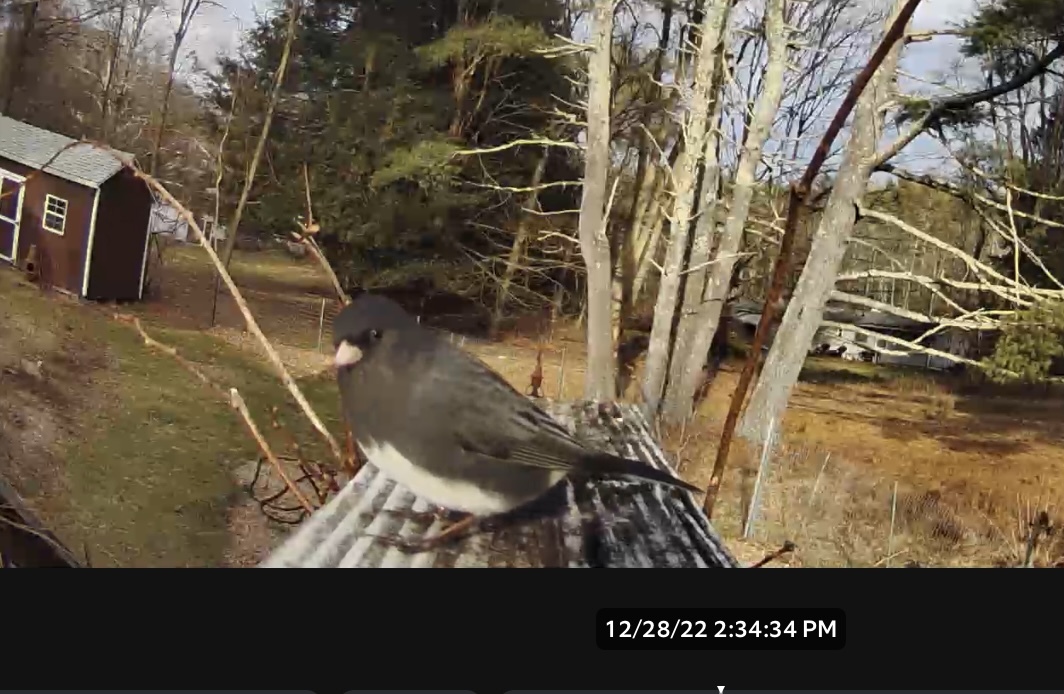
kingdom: Animalia
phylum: Chordata
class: Aves
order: Passeriformes
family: Passerellidae
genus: Junco
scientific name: Junco hyemalis
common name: Dark-eyed junco
